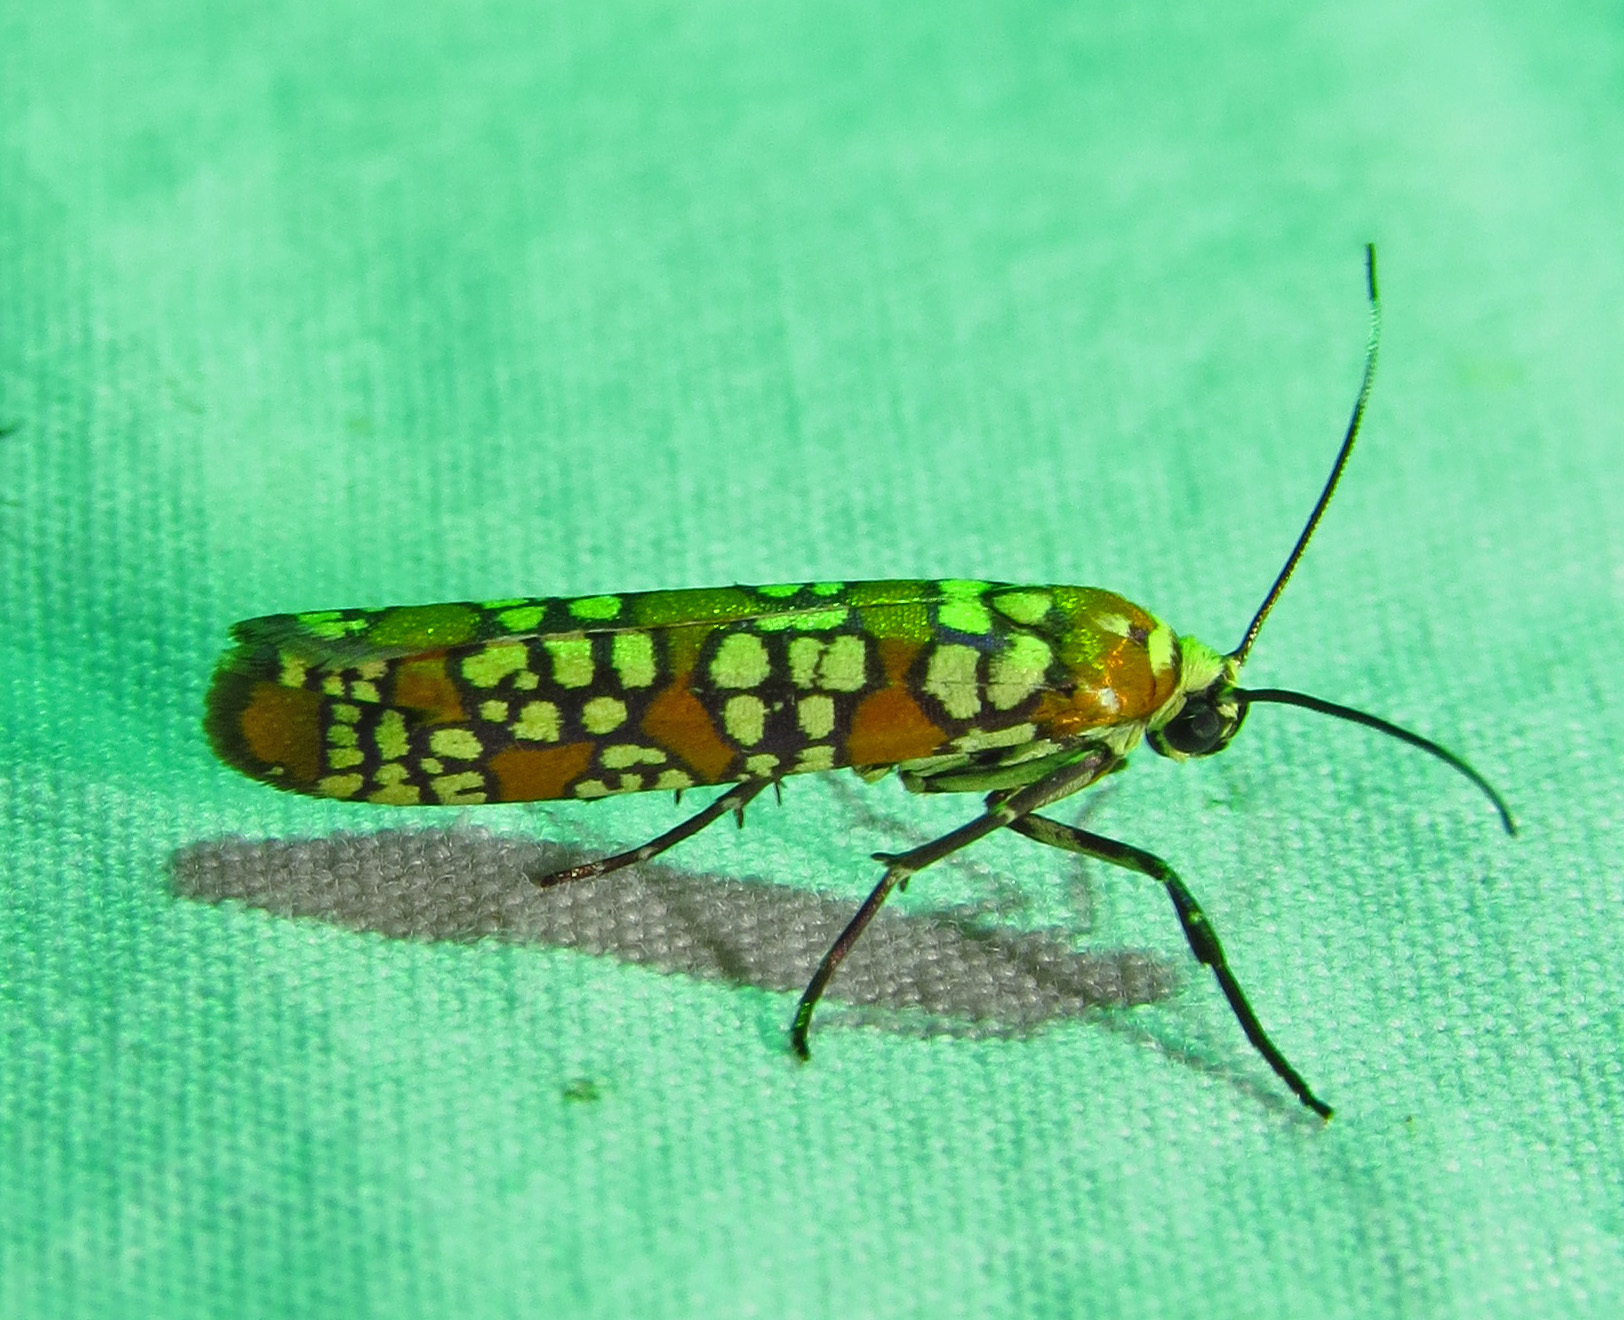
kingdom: Animalia
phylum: Arthropoda
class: Insecta
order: Lepidoptera
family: Attevidae
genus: Atteva
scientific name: Atteva punctella
